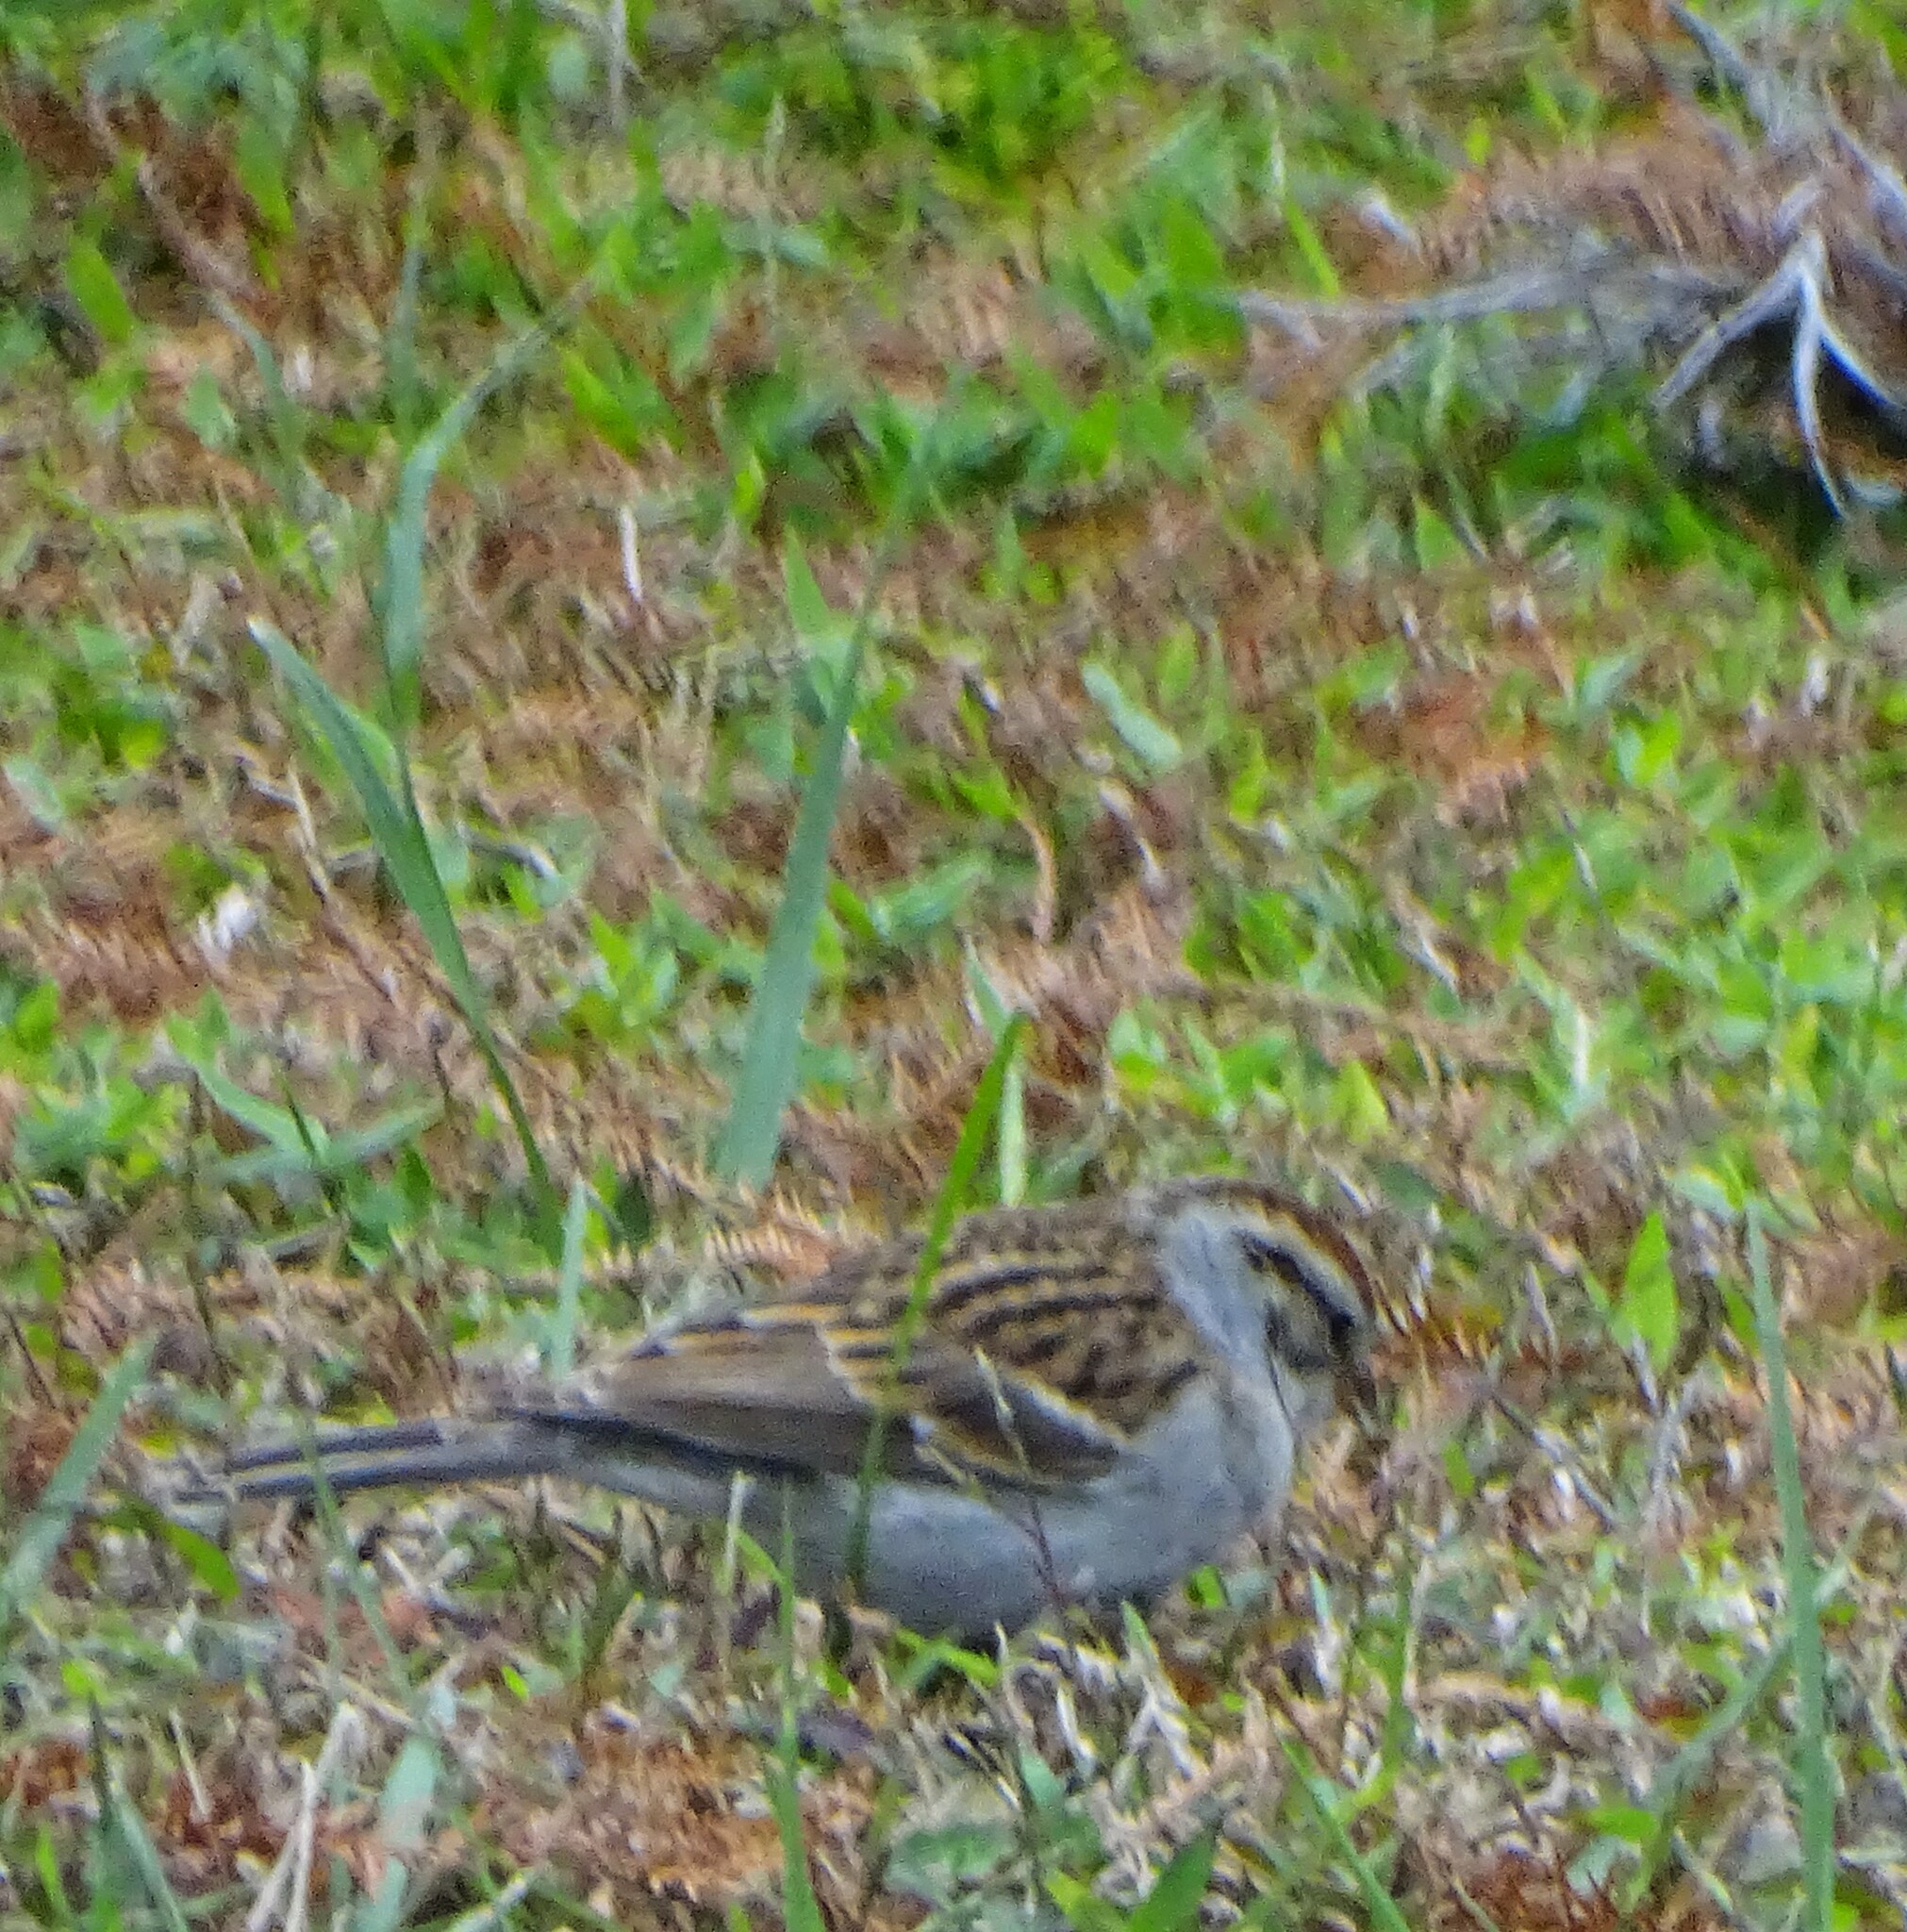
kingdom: Animalia
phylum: Chordata
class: Aves
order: Passeriformes
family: Passerellidae
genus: Spizella
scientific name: Spizella passerina
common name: Chipping sparrow
